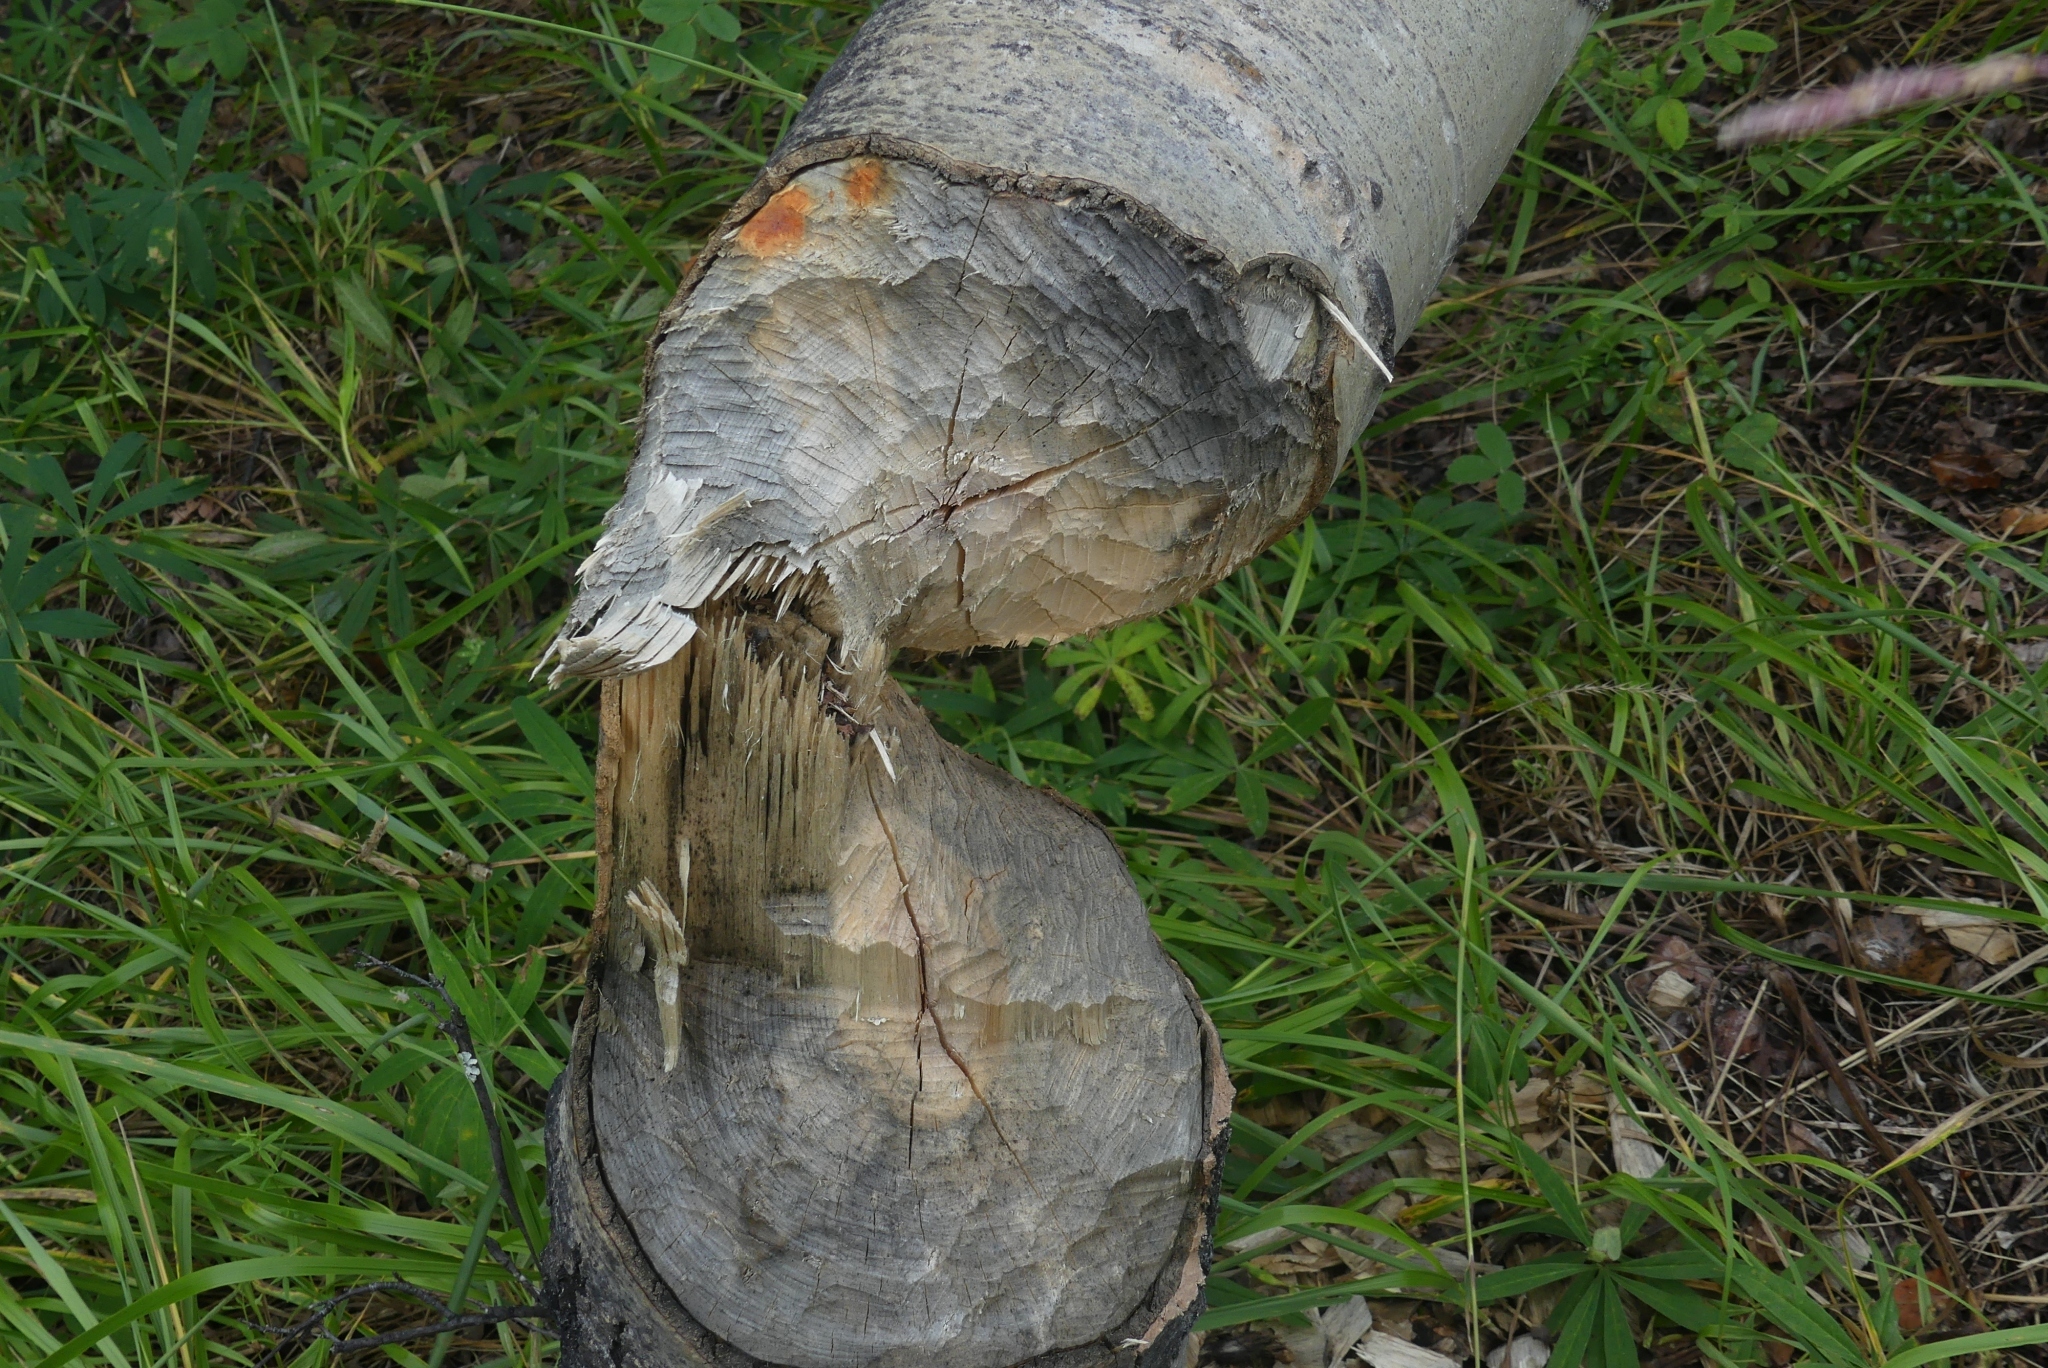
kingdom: Animalia
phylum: Chordata
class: Mammalia
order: Rodentia
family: Castoridae
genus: Castor
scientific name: Castor canadensis
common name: American beaver
